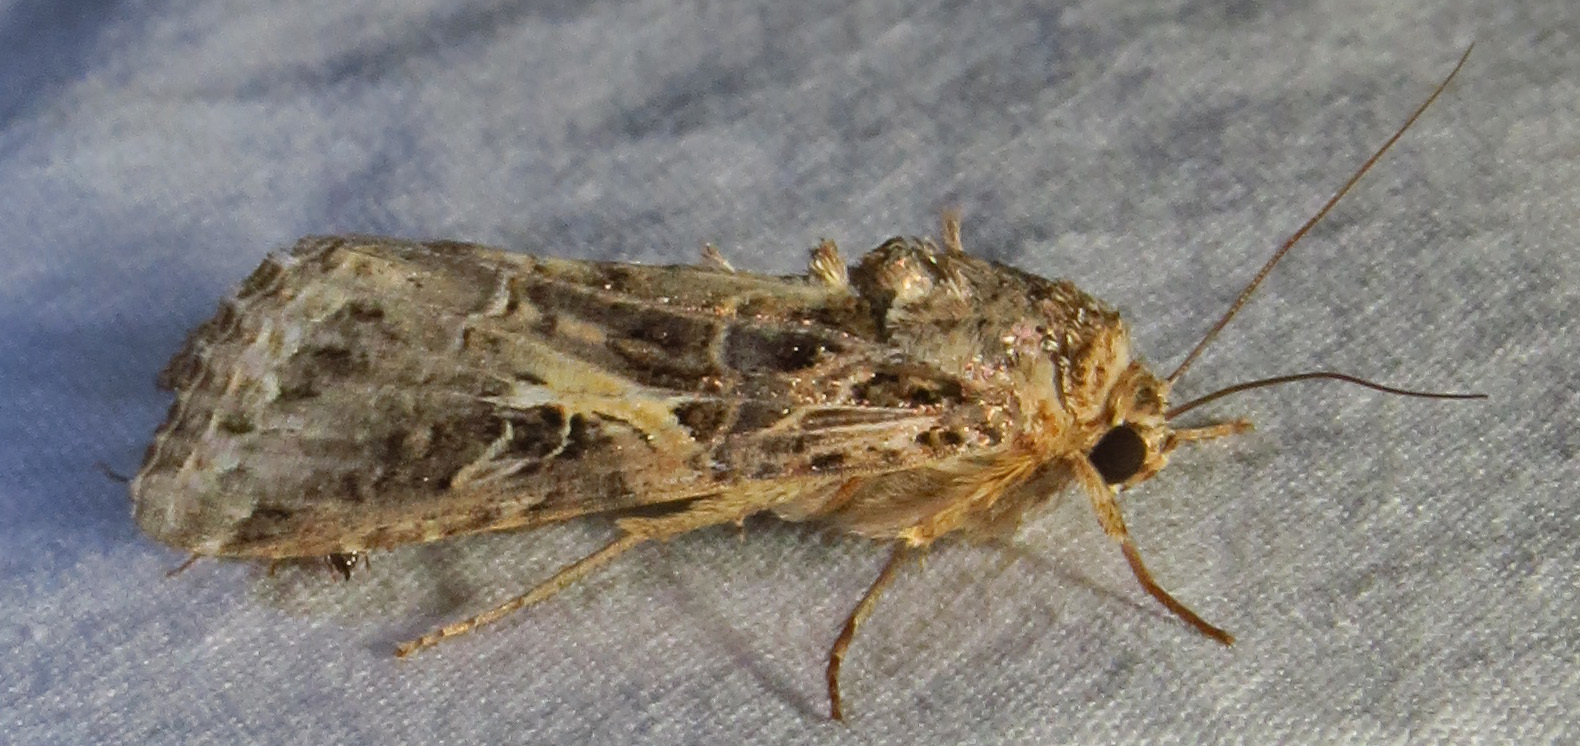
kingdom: Animalia
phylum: Arthropoda
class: Insecta
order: Lepidoptera
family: Noctuidae
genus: Spodoptera
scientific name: Spodoptera ornithogalli
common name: Yellow-striped armyworm
